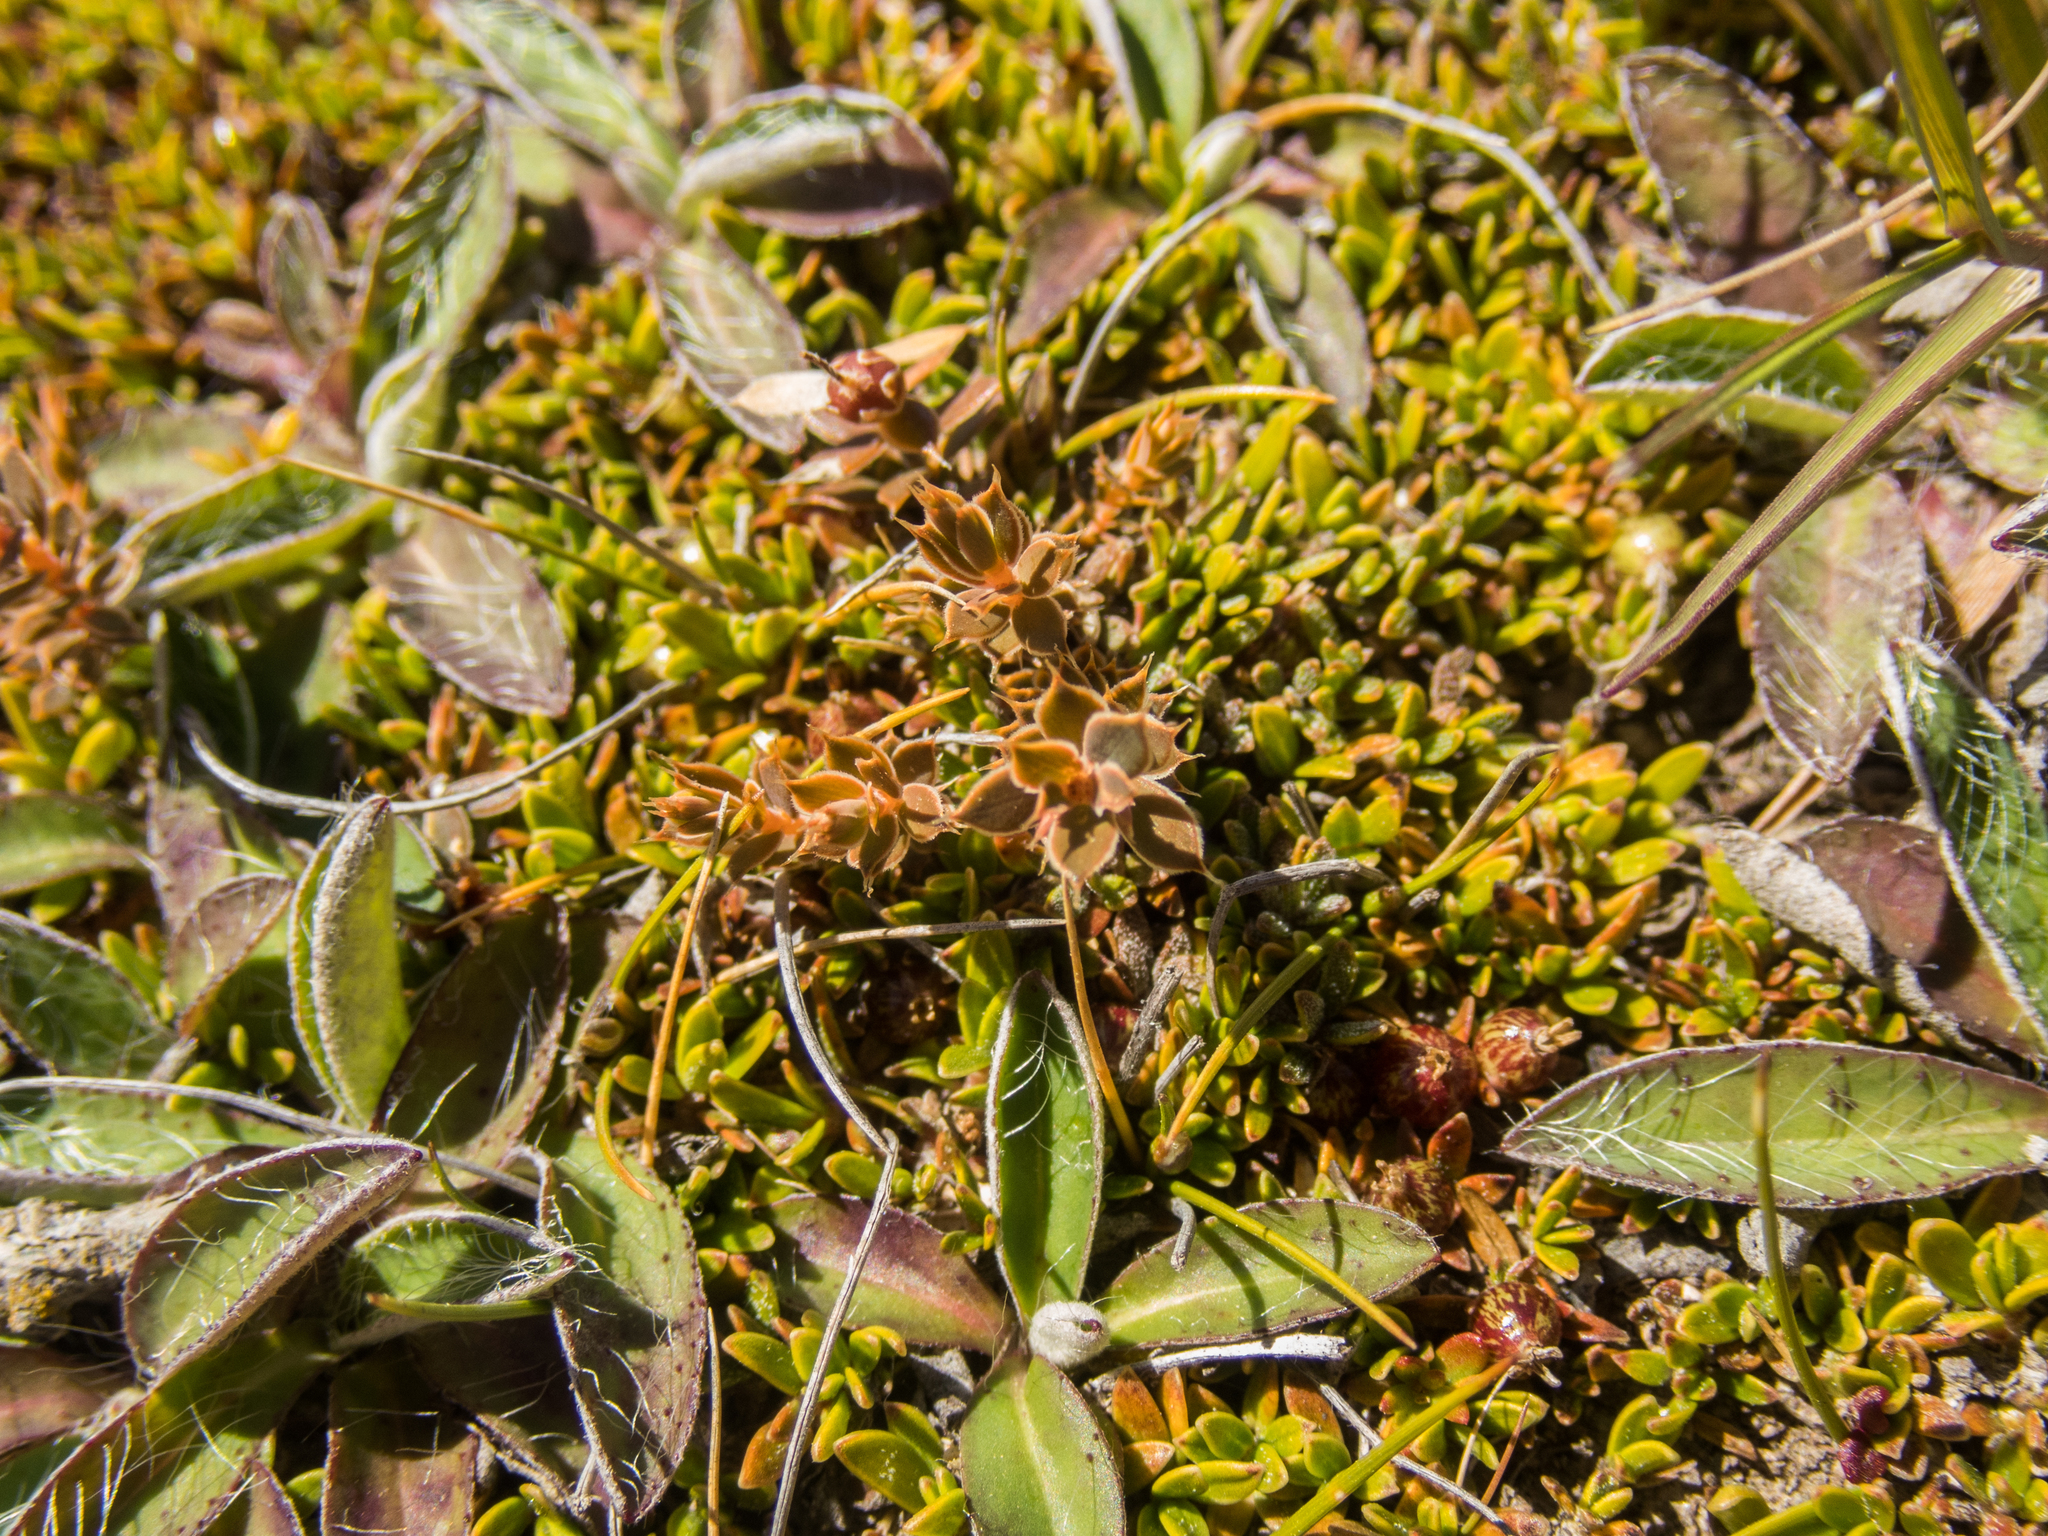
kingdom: Plantae
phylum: Tracheophyta
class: Magnoliopsida
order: Ericales
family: Ericaceae
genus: Styphelia
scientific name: Styphelia nesophila
